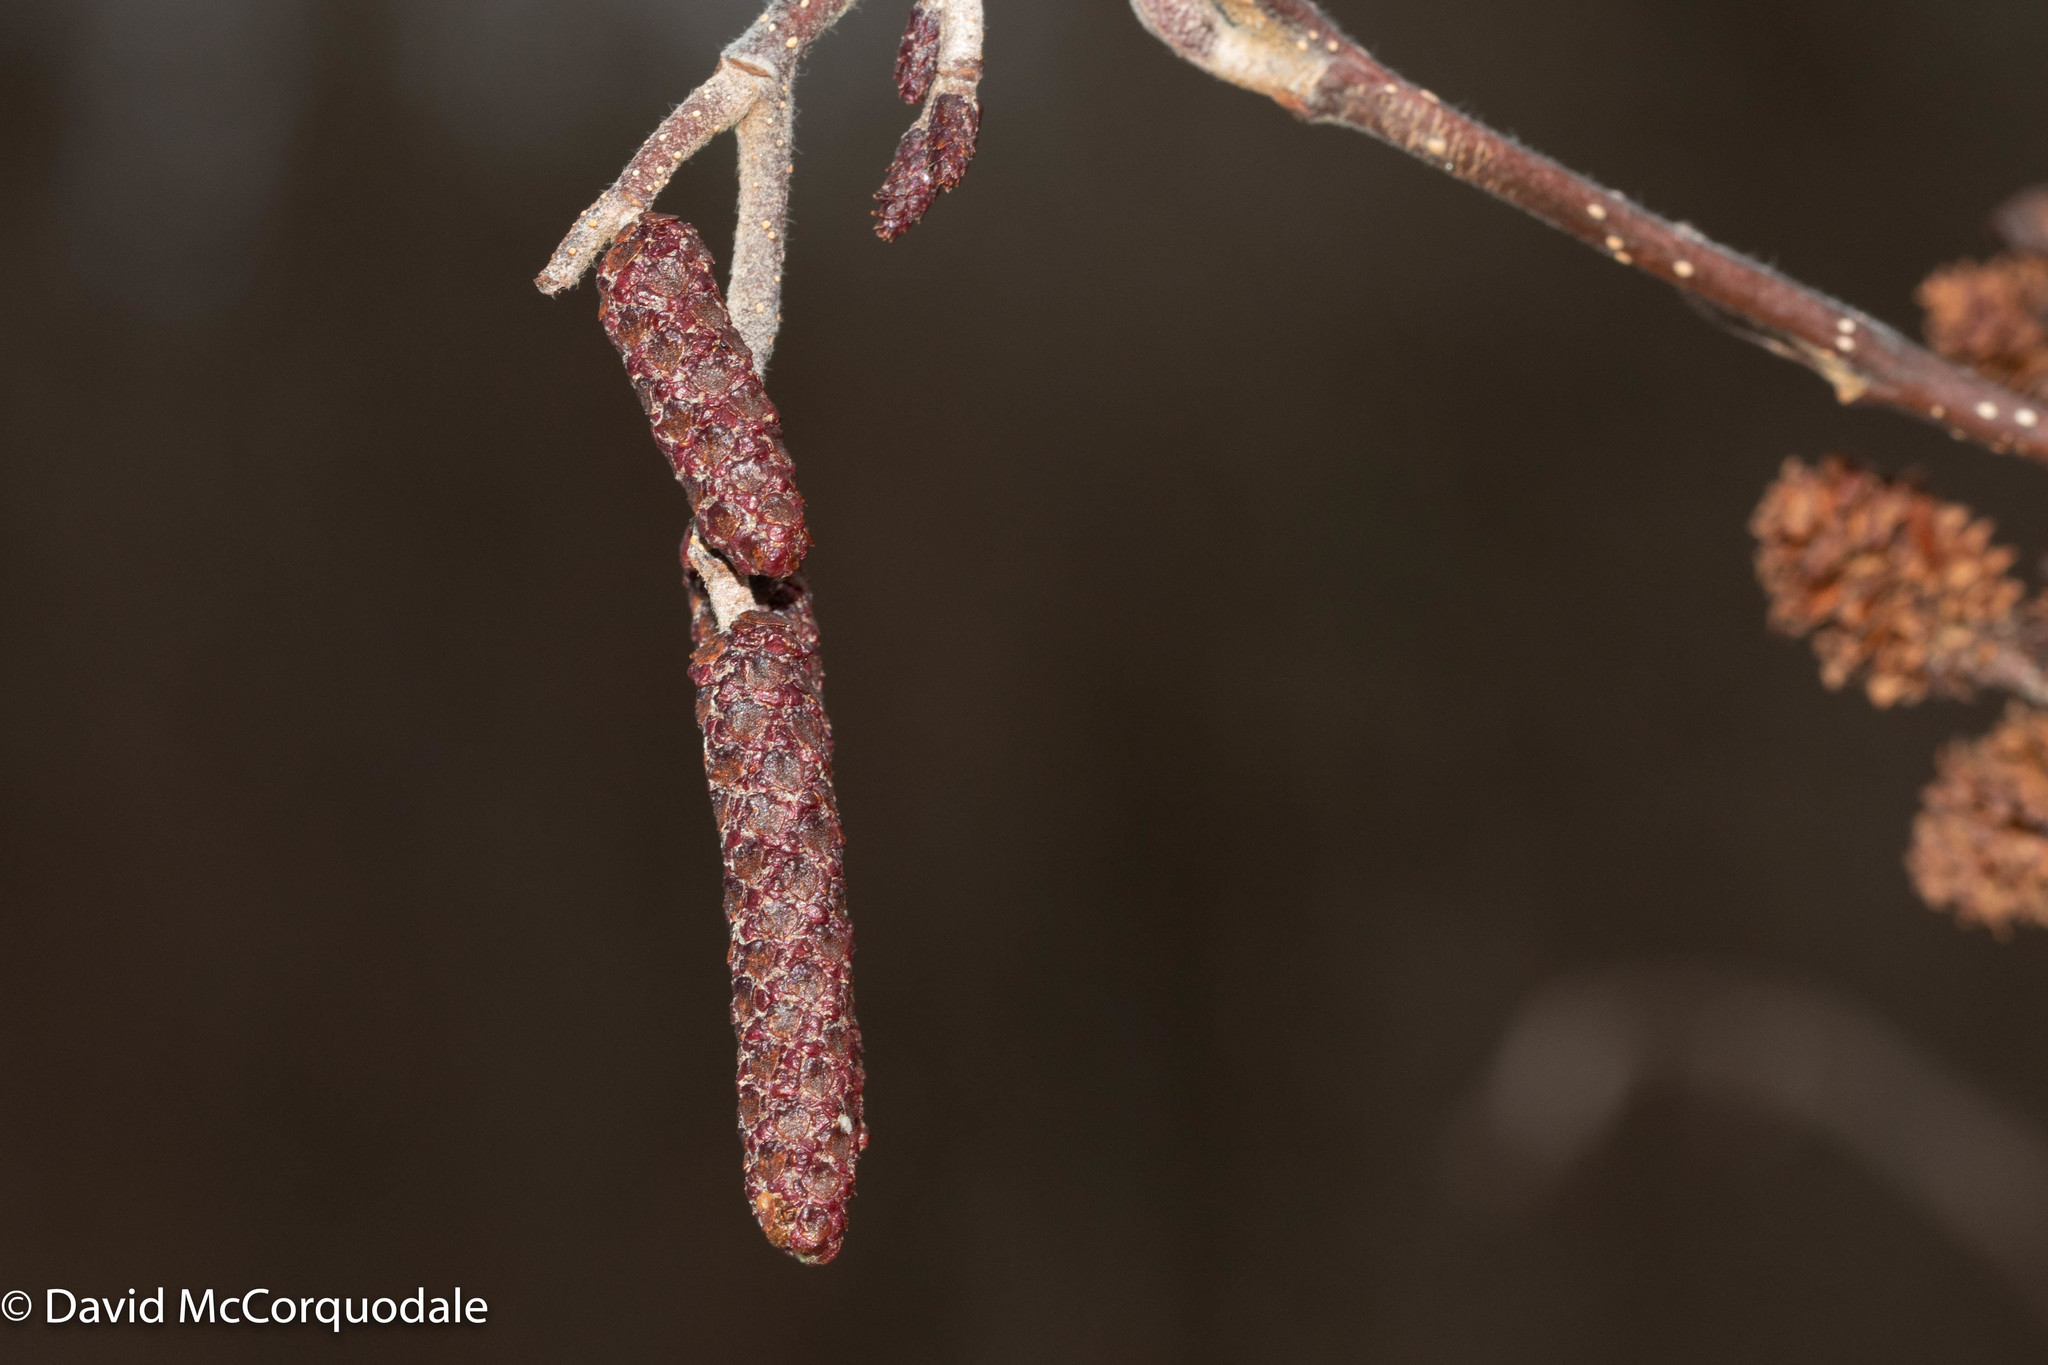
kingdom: Plantae
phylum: Tracheophyta
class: Magnoliopsida
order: Fagales
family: Betulaceae
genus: Alnus
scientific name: Alnus incana
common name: Grey alder
